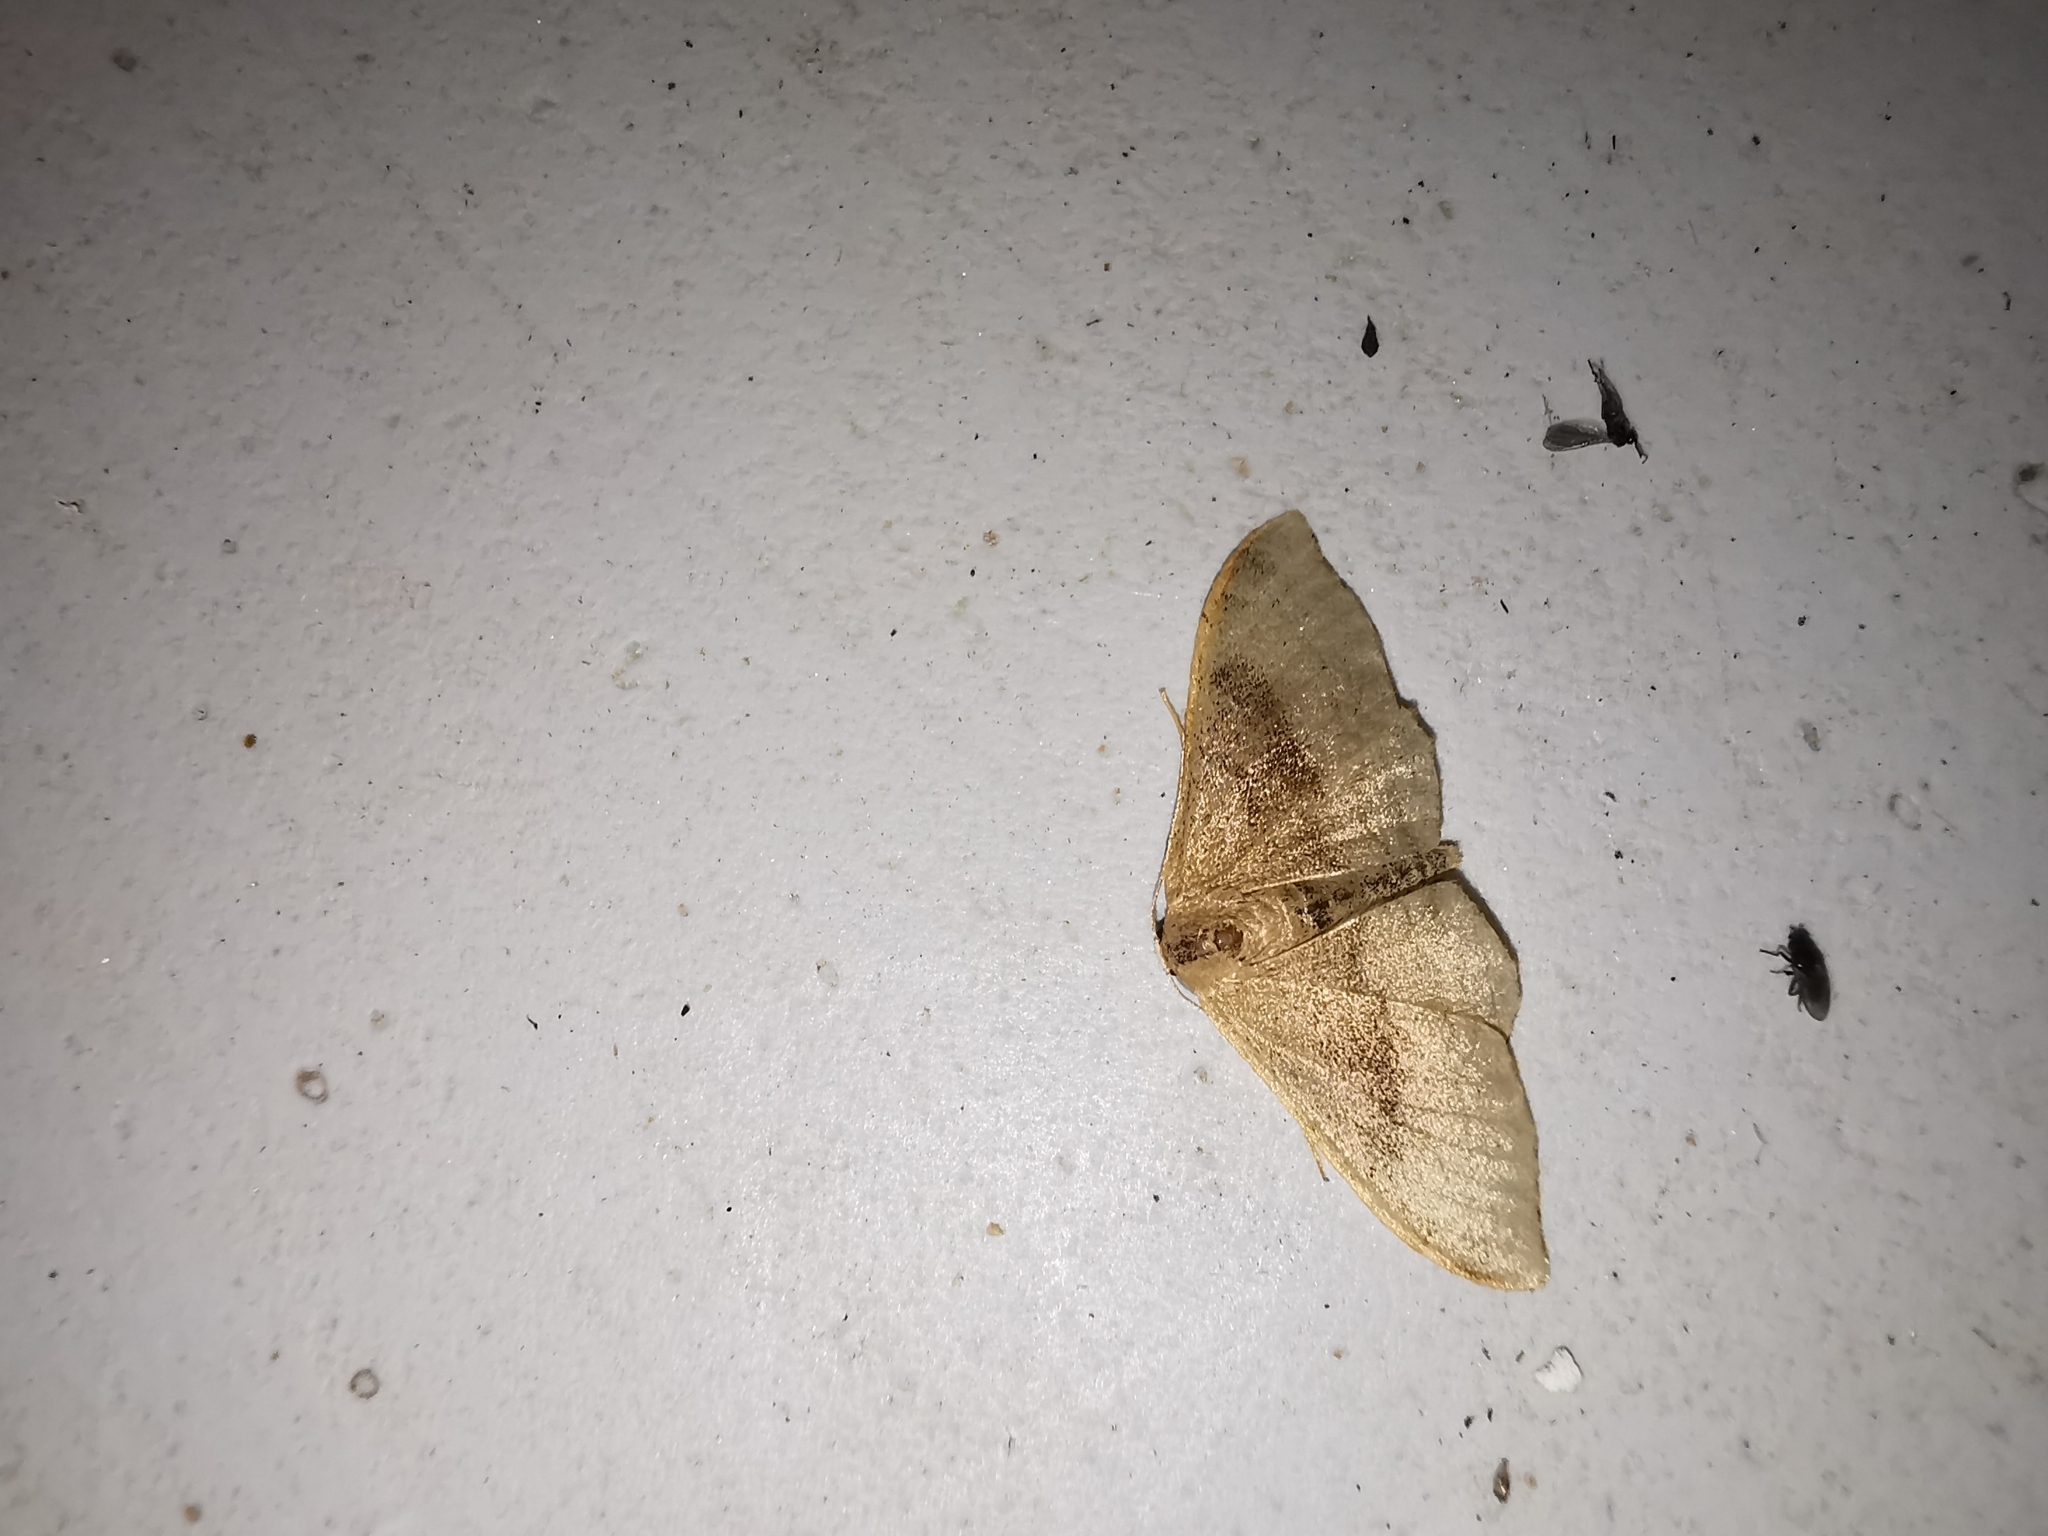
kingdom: Animalia
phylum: Arthropoda
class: Insecta
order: Lepidoptera
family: Geometridae
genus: Idaea
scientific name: Idaea degeneraria
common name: Portland ribbon wave
